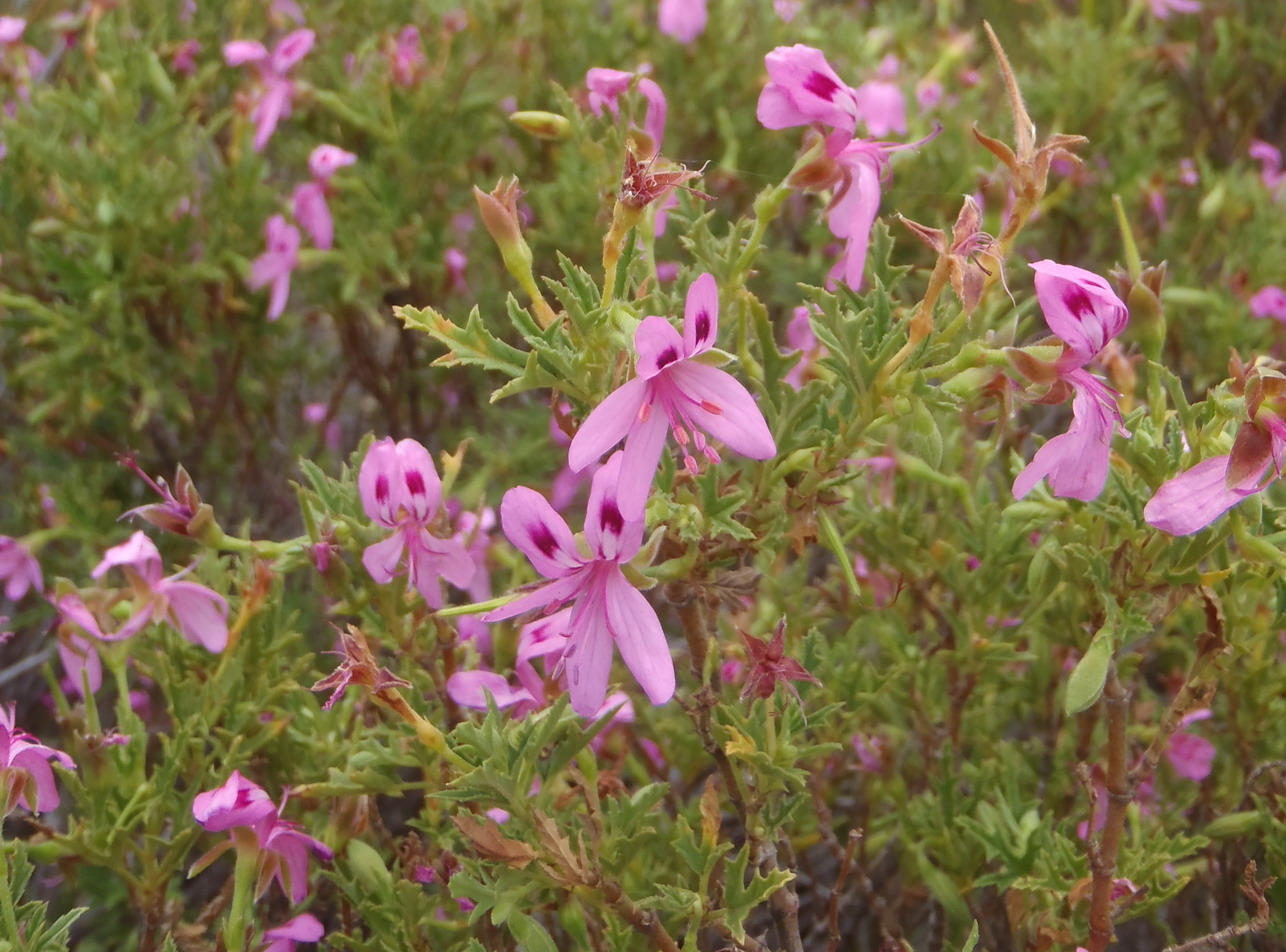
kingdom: Plantae
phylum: Tracheophyta
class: Magnoliopsida
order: Geraniales
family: Geraniaceae
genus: Pelargonium
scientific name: Pelargonium pseudoglutinosum
